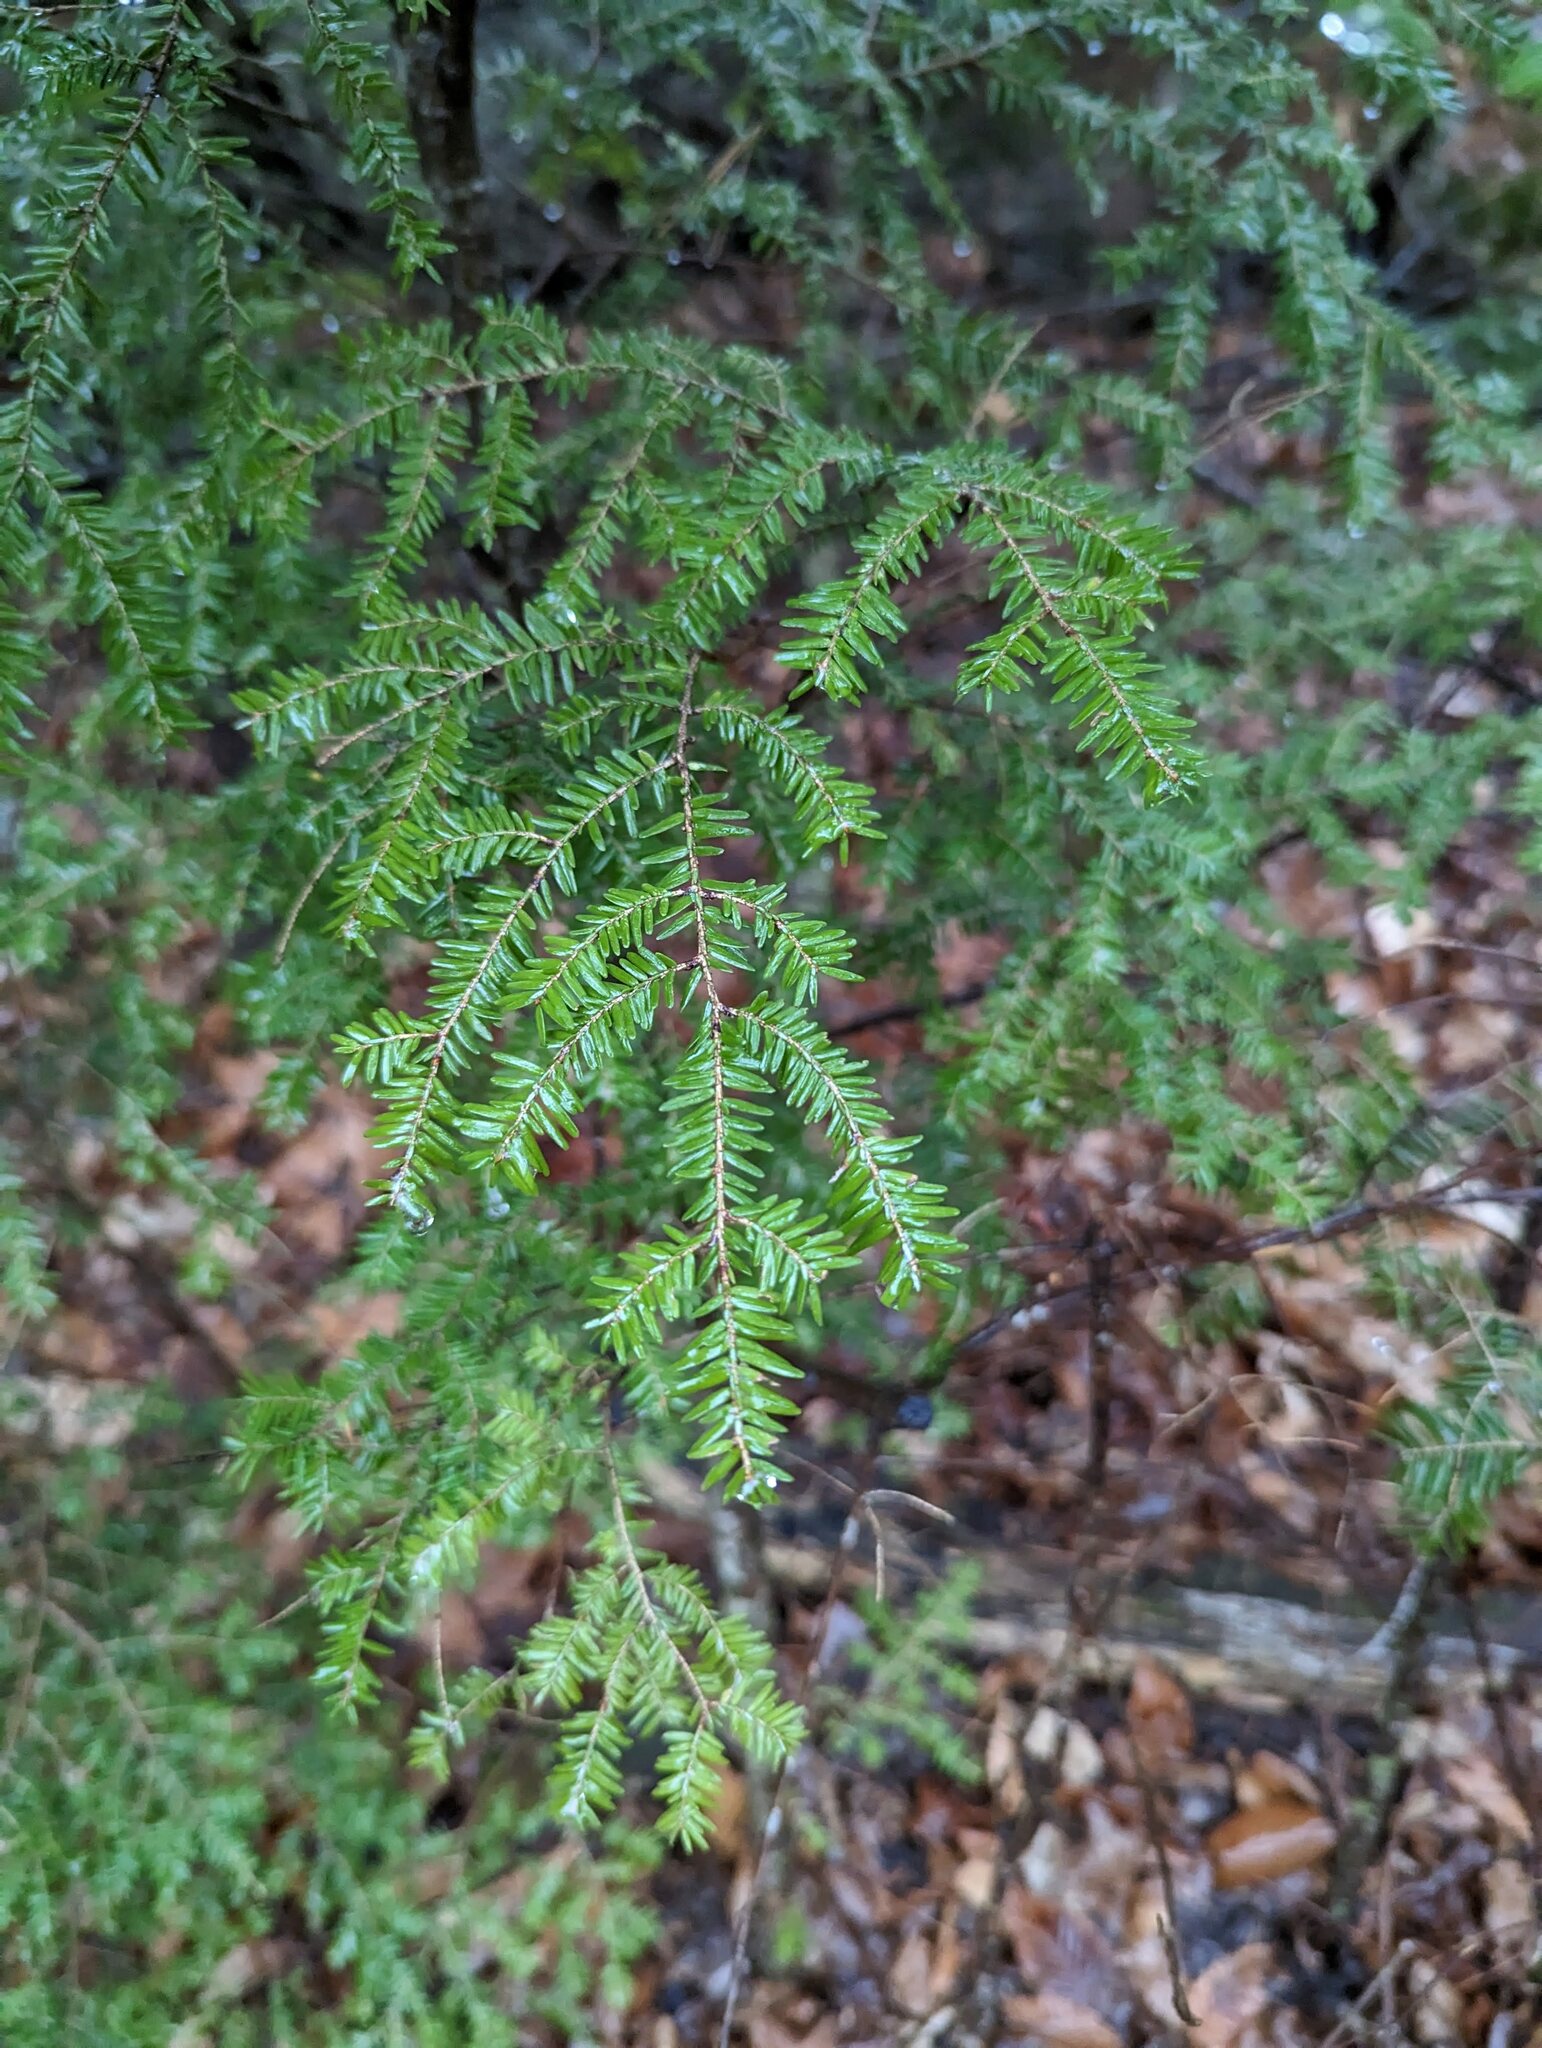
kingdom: Plantae
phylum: Tracheophyta
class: Pinopsida
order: Pinales
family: Pinaceae
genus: Tsuga
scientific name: Tsuga canadensis
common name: Eastern hemlock
